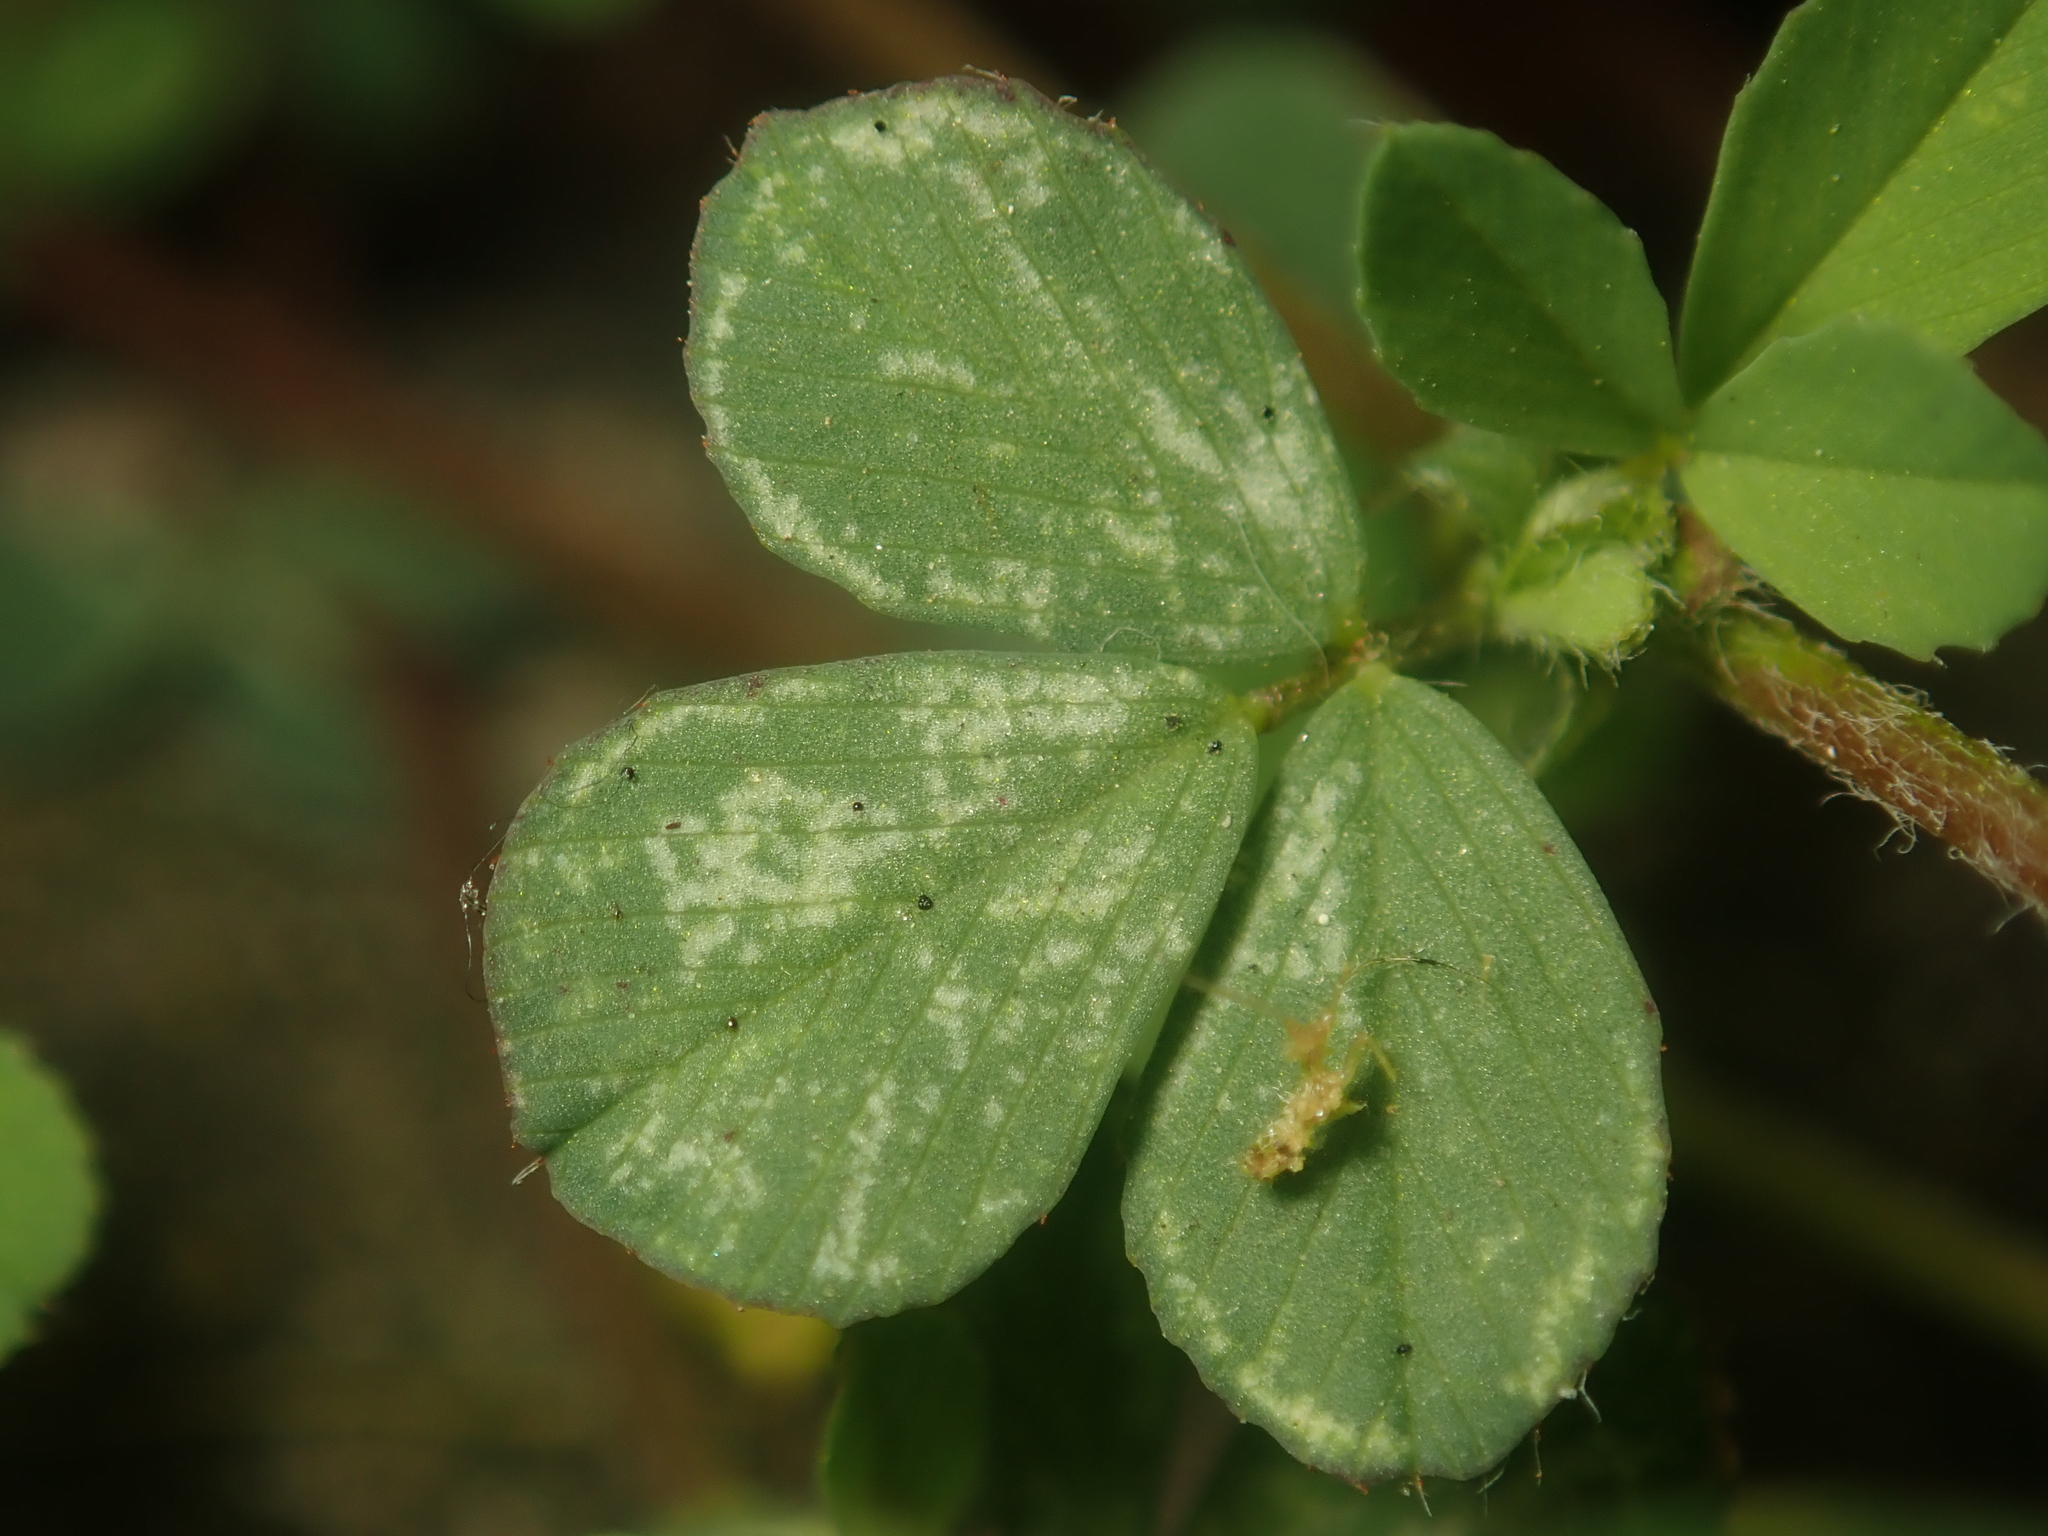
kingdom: Animalia
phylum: Arthropoda
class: Arachnida
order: Trombidiformes
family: Tetranychidae
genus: Bryobia
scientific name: Bryobia praetiosa
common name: Clover mite
